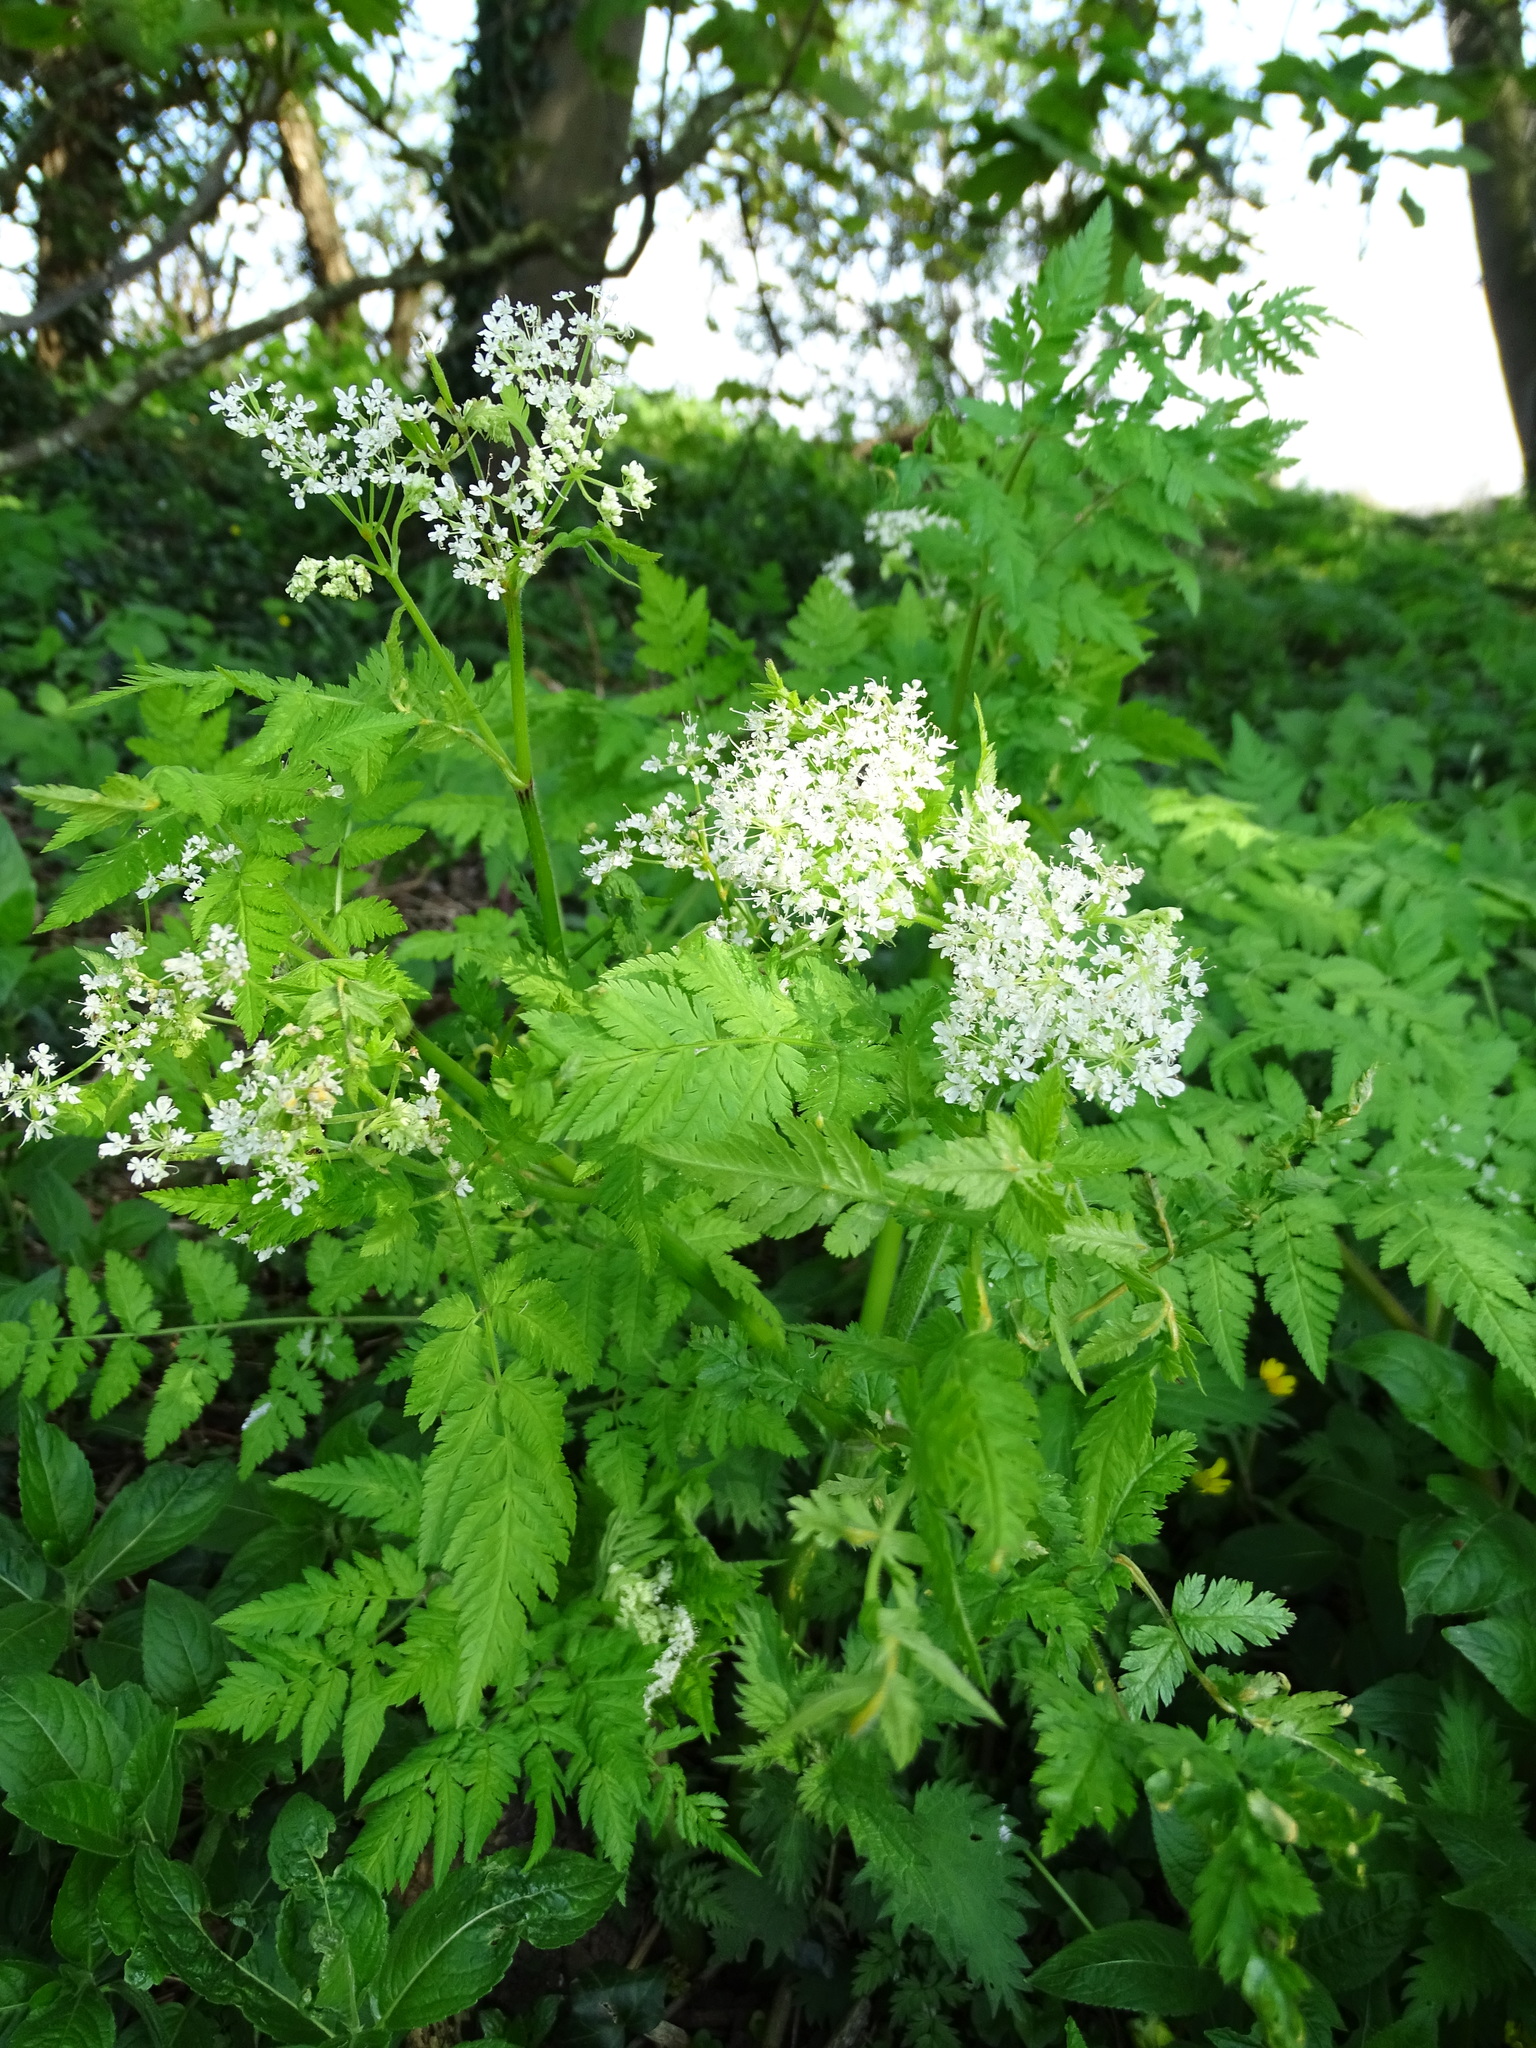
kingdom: Plantae
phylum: Tracheophyta
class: Magnoliopsida
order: Apiales
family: Apiaceae
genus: Myrrhis
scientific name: Myrrhis odorata
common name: Sweet cicely
